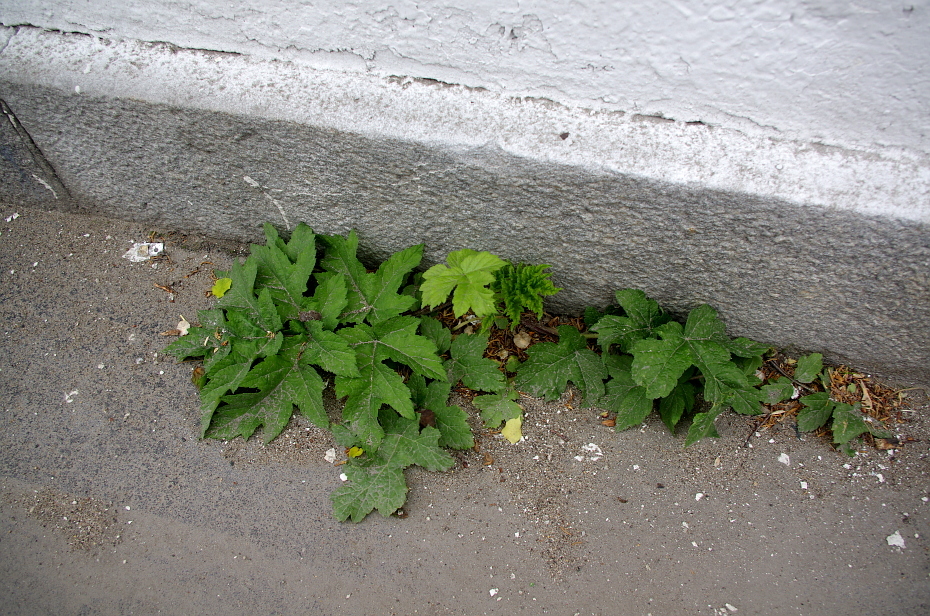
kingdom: Plantae
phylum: Tracheophyta
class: Magnoliopsida
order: Apiales
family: Apiaceae
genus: Heracleum
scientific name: Heracleum sphondylium
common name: Hogweed
